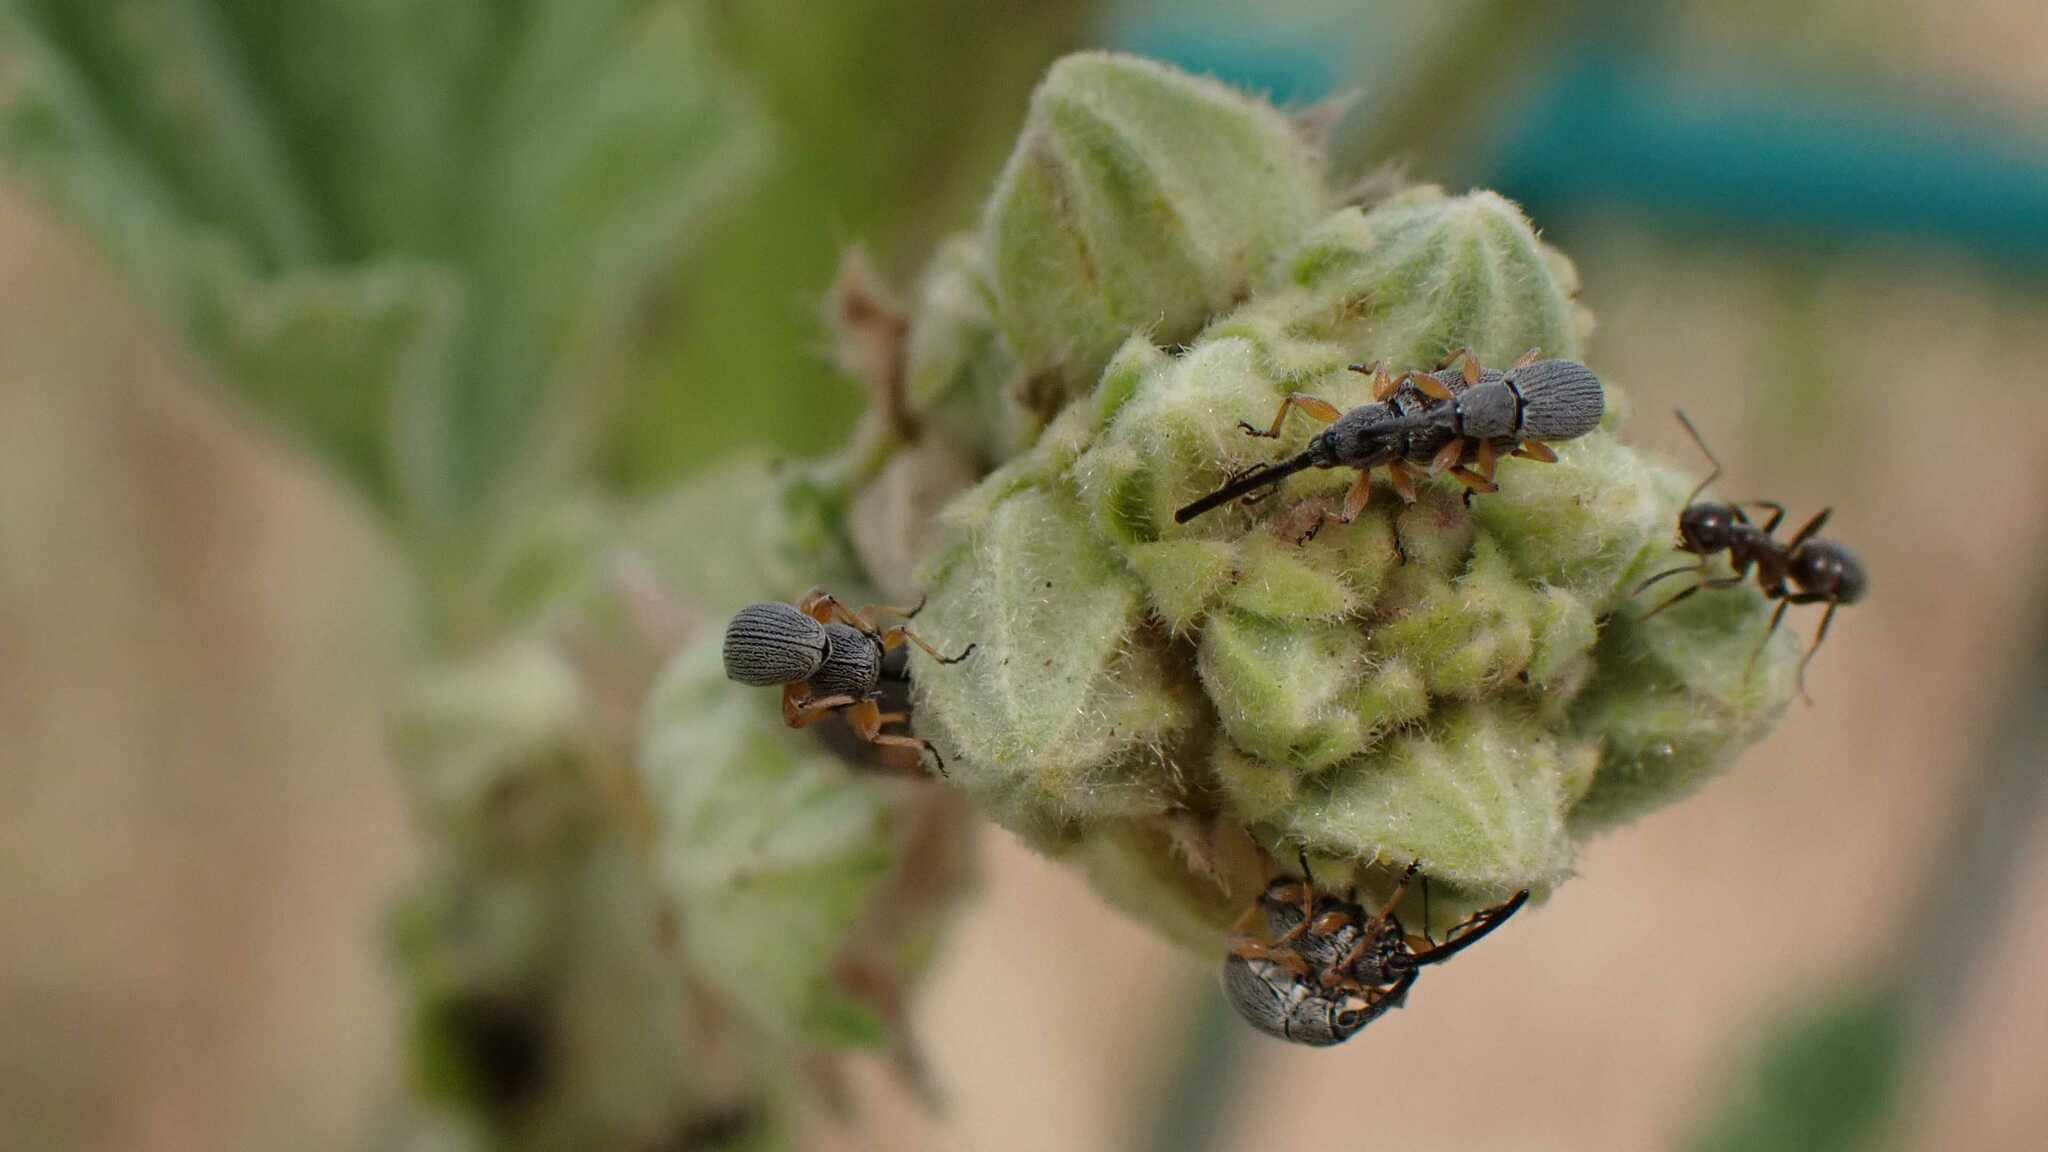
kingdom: Animalia
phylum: Arthropoda
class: Insecta
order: Coleoptera
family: Brentidae
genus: Rhopalapion
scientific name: Rhopalapion longirostre
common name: Hollyhock weevil
